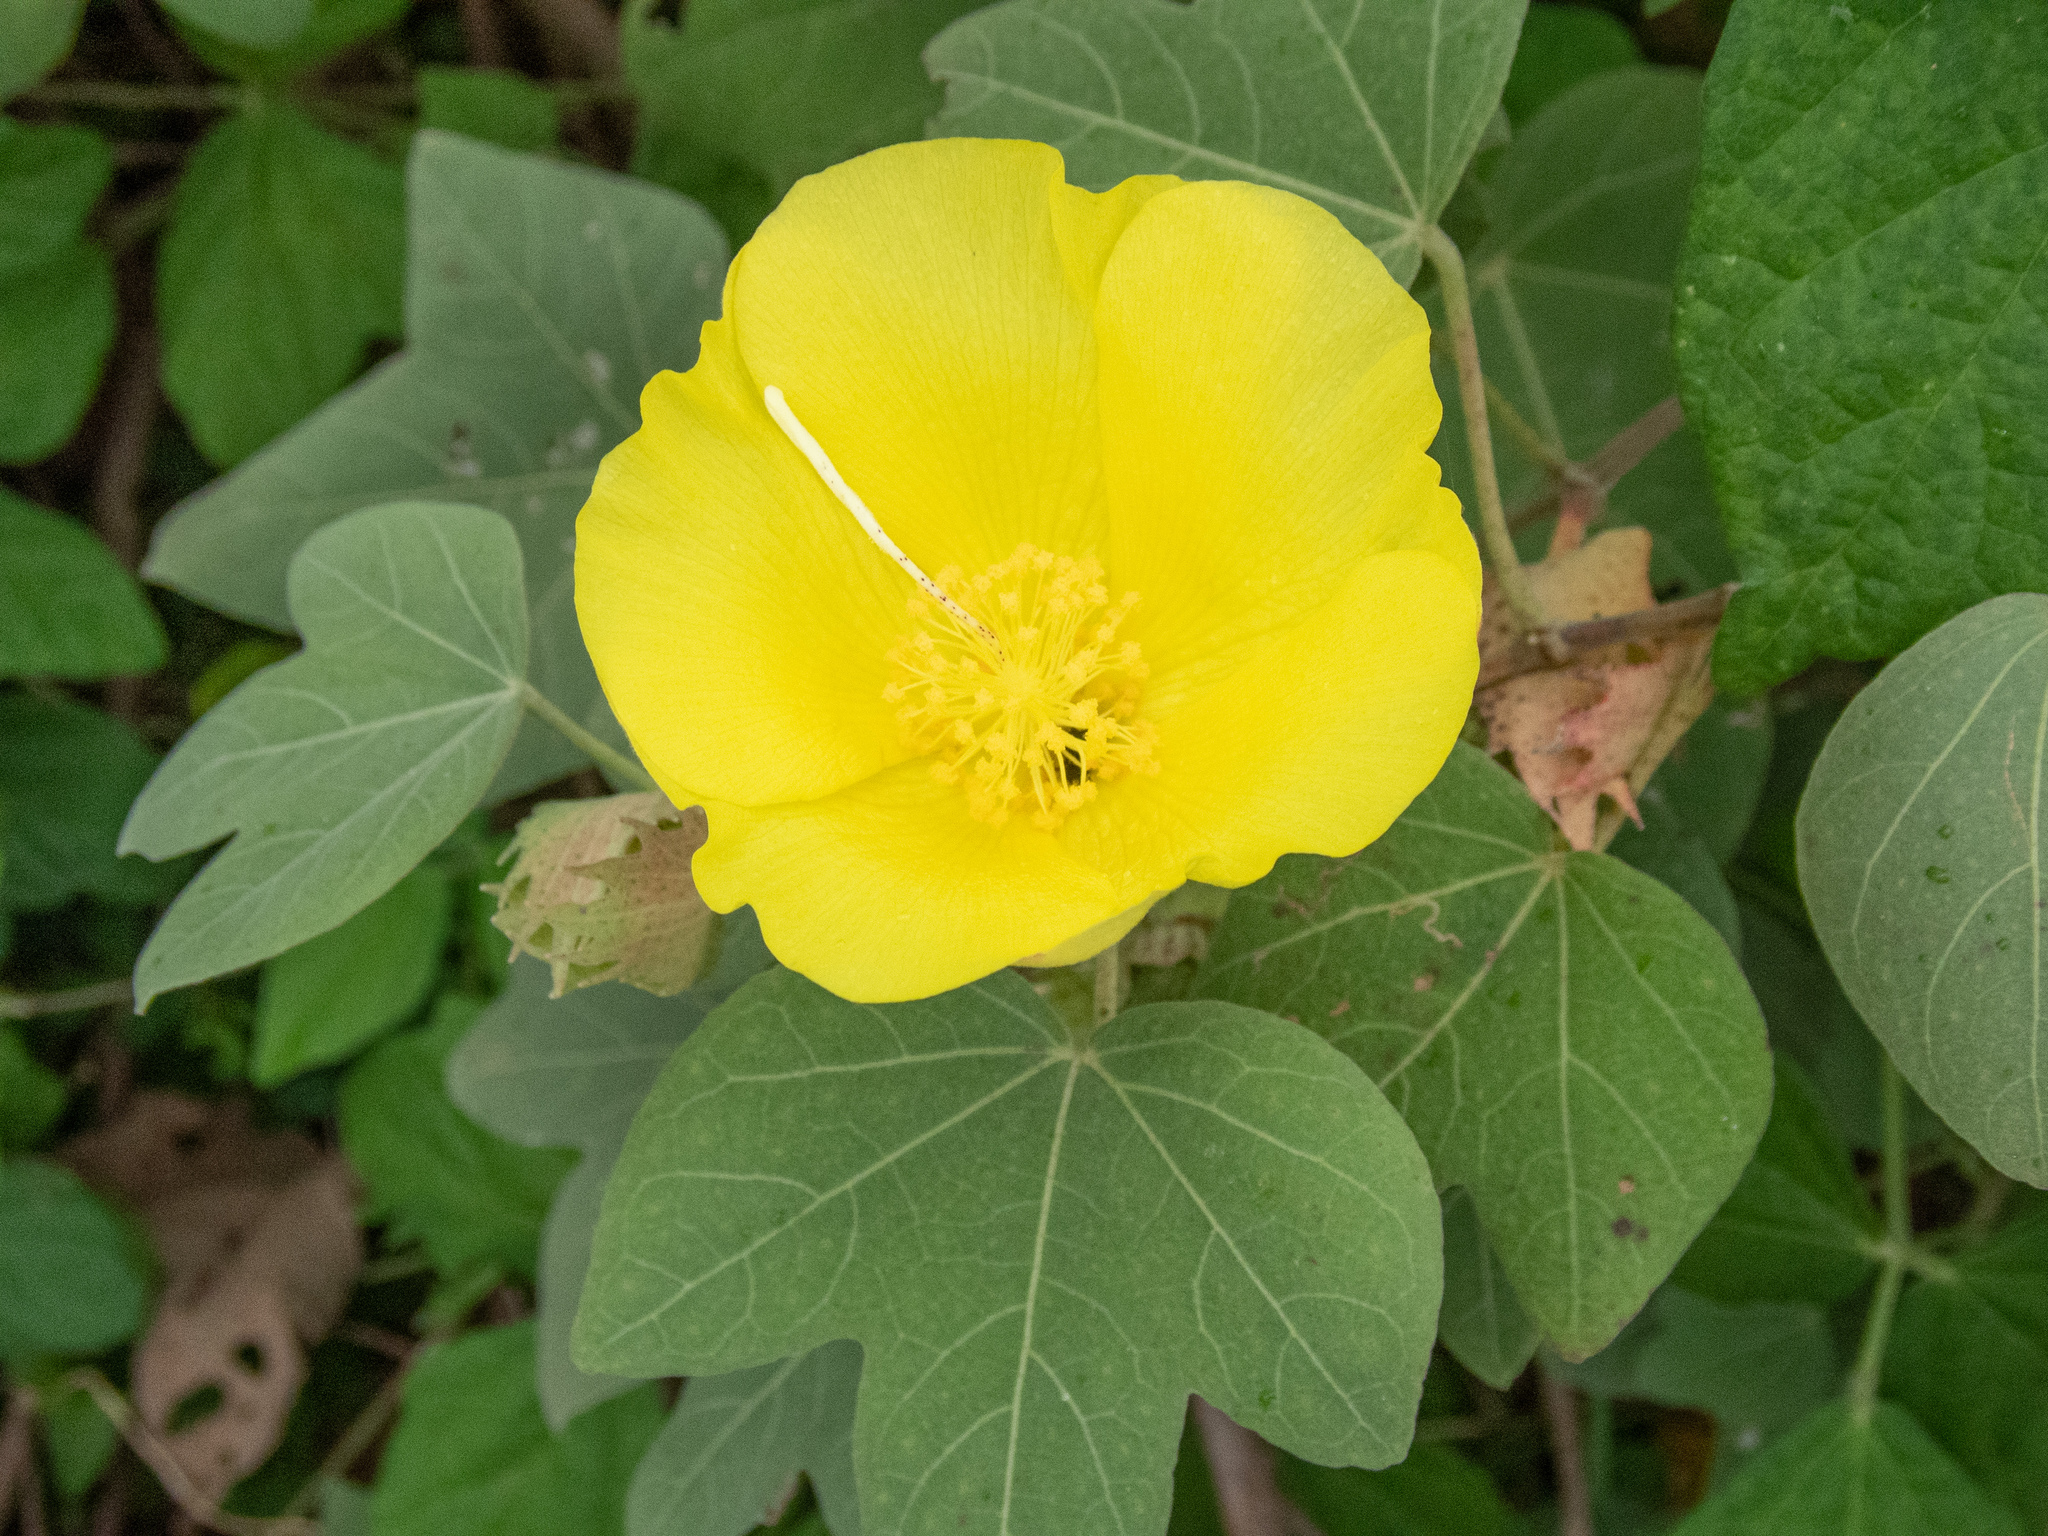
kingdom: Plantae
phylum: Tracheophyta
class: Magnoliopsida
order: Malvales
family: Malvaceae
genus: Gossypium
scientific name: Gossypium tomentosum
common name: Hawaiian cotton
